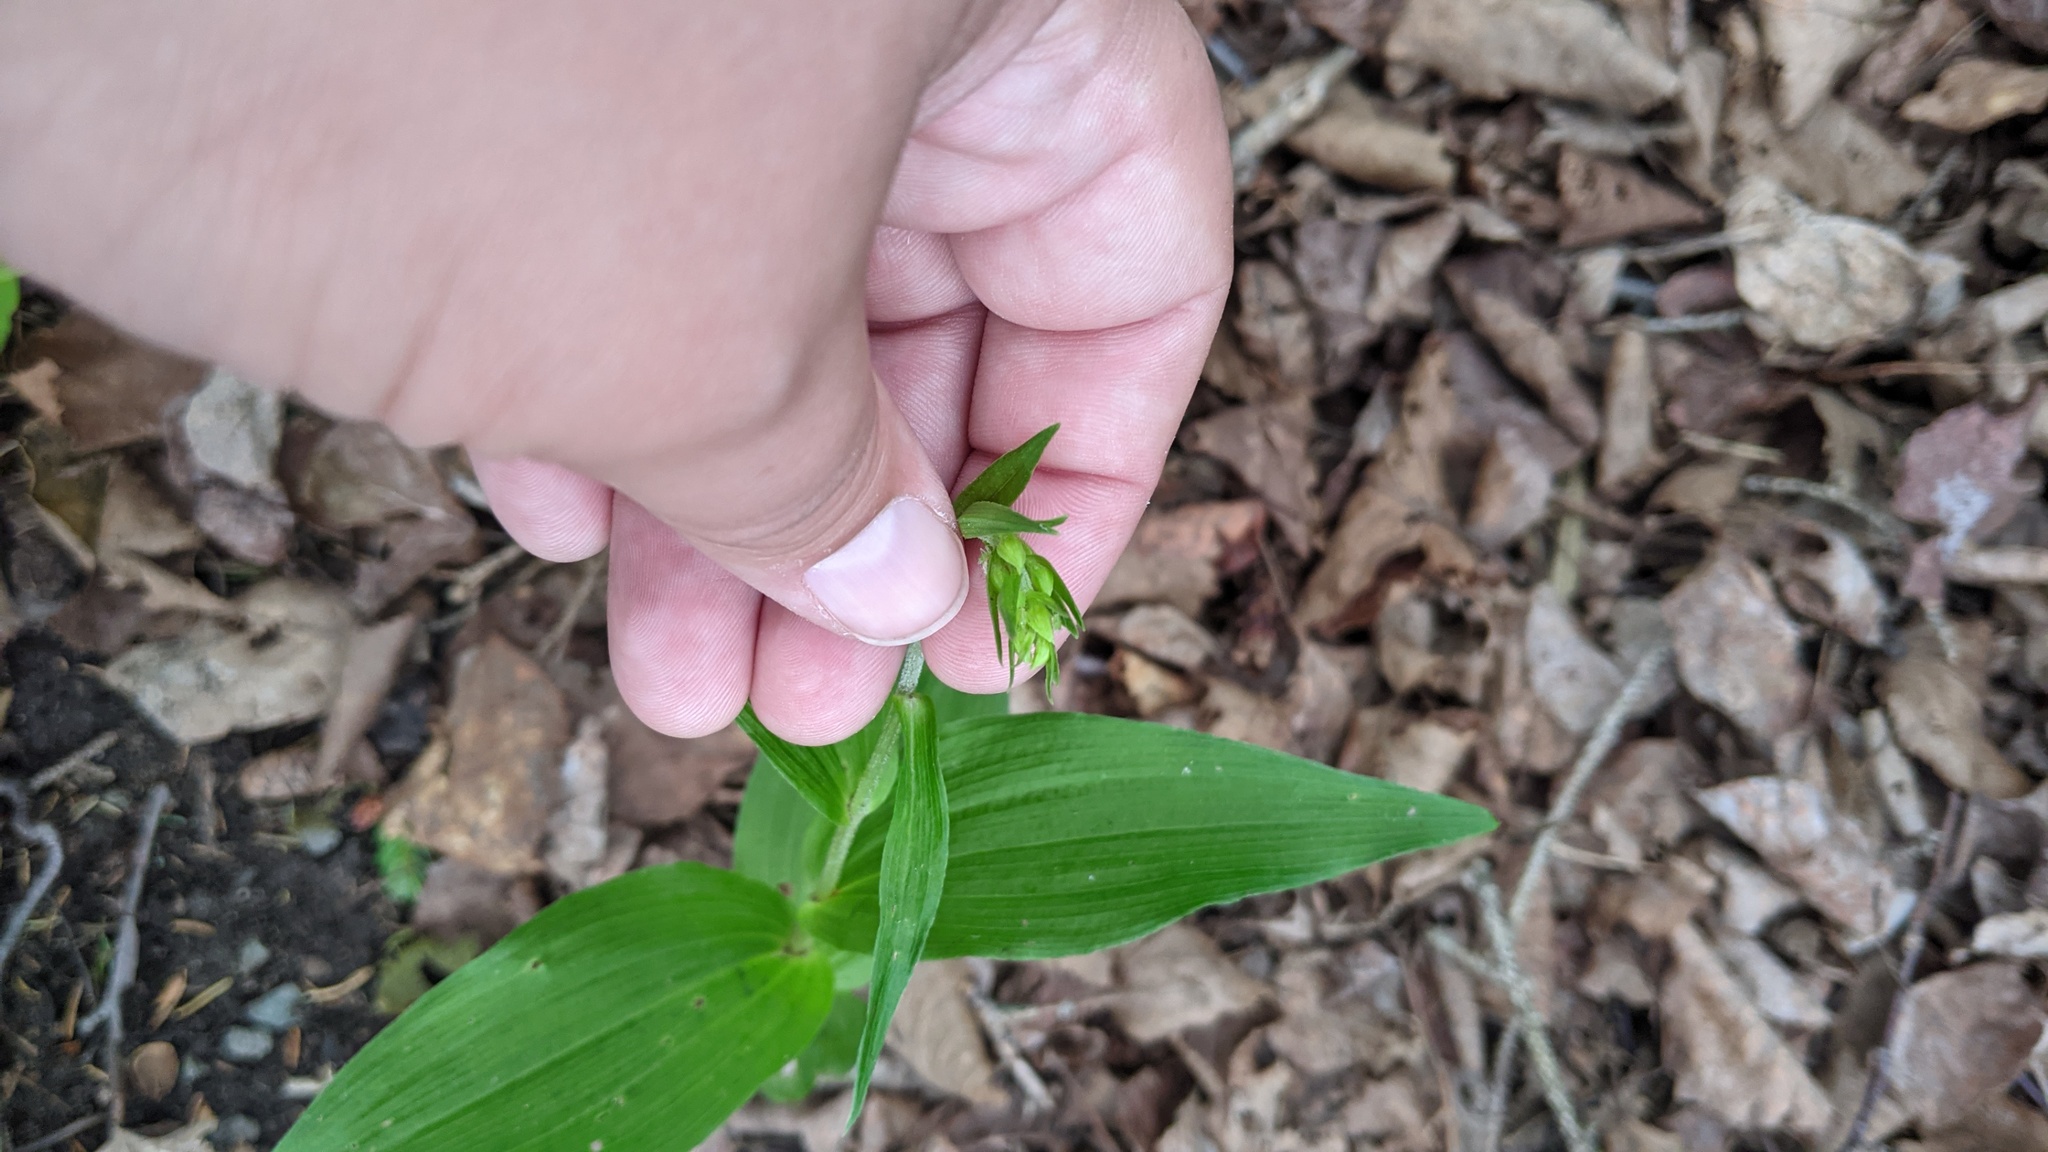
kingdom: Plantae
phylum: Tracheophyta
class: Liliopsida
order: Asparagales
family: Orchidaceae
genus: Epipactis
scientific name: Epipactis helleborine
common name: Broad-leaved helleborine
